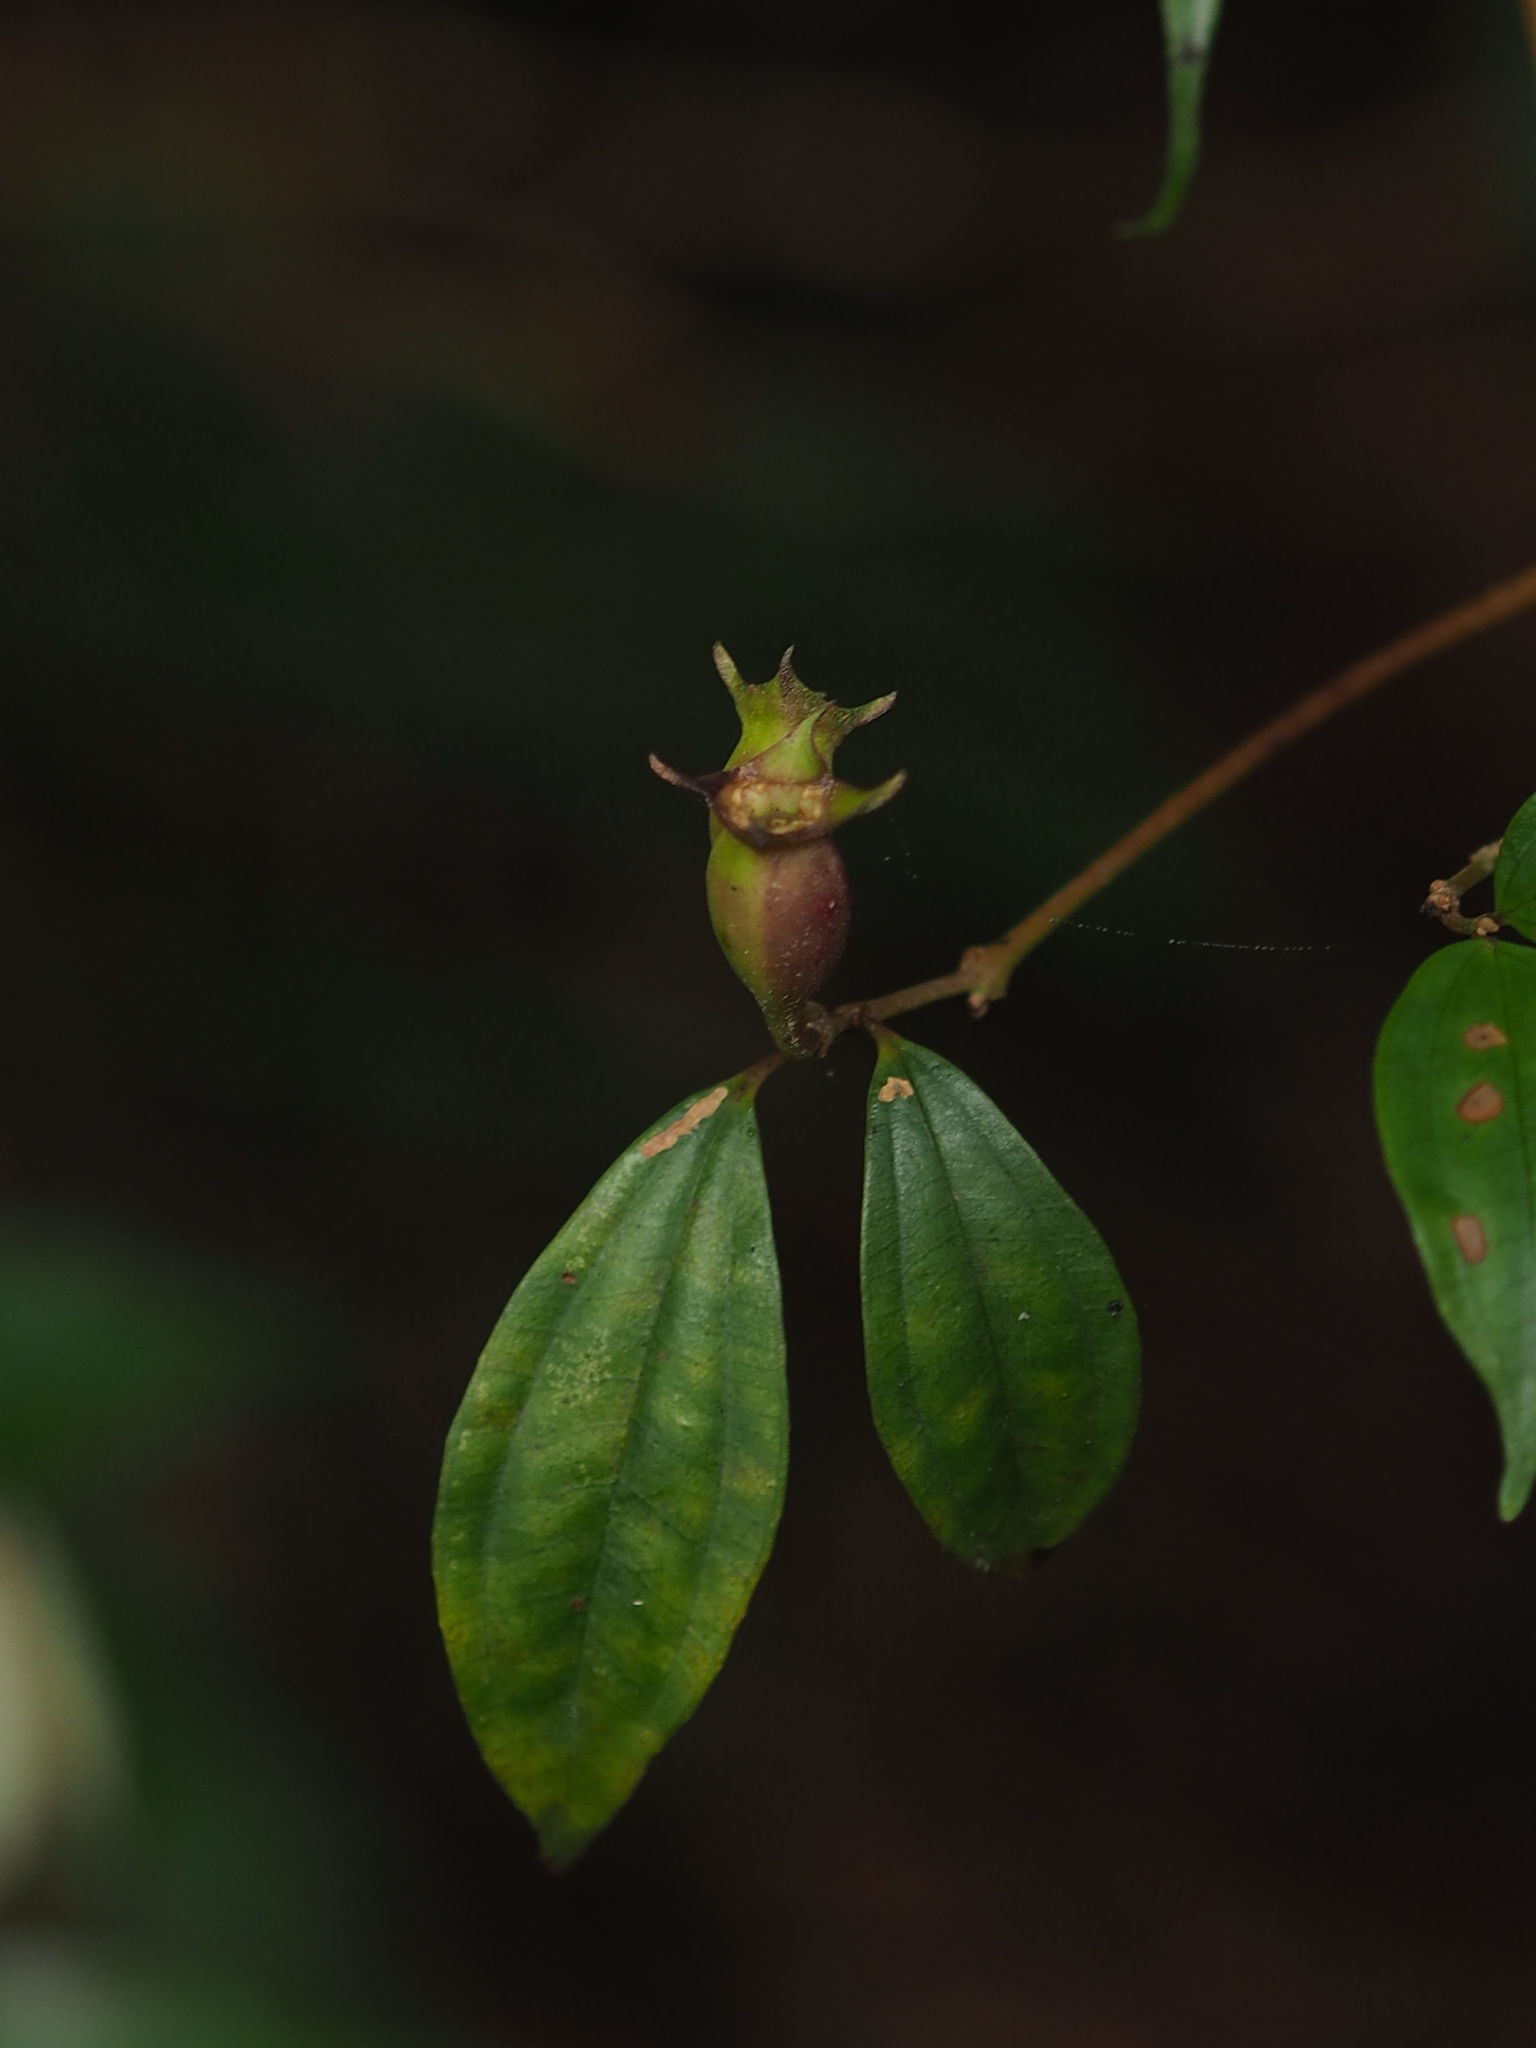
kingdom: Plantae
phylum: Tracheophyta
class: Magnoliopsida
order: Myrtales
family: Melastomataceae
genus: Barthea
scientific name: Barthea barthei
